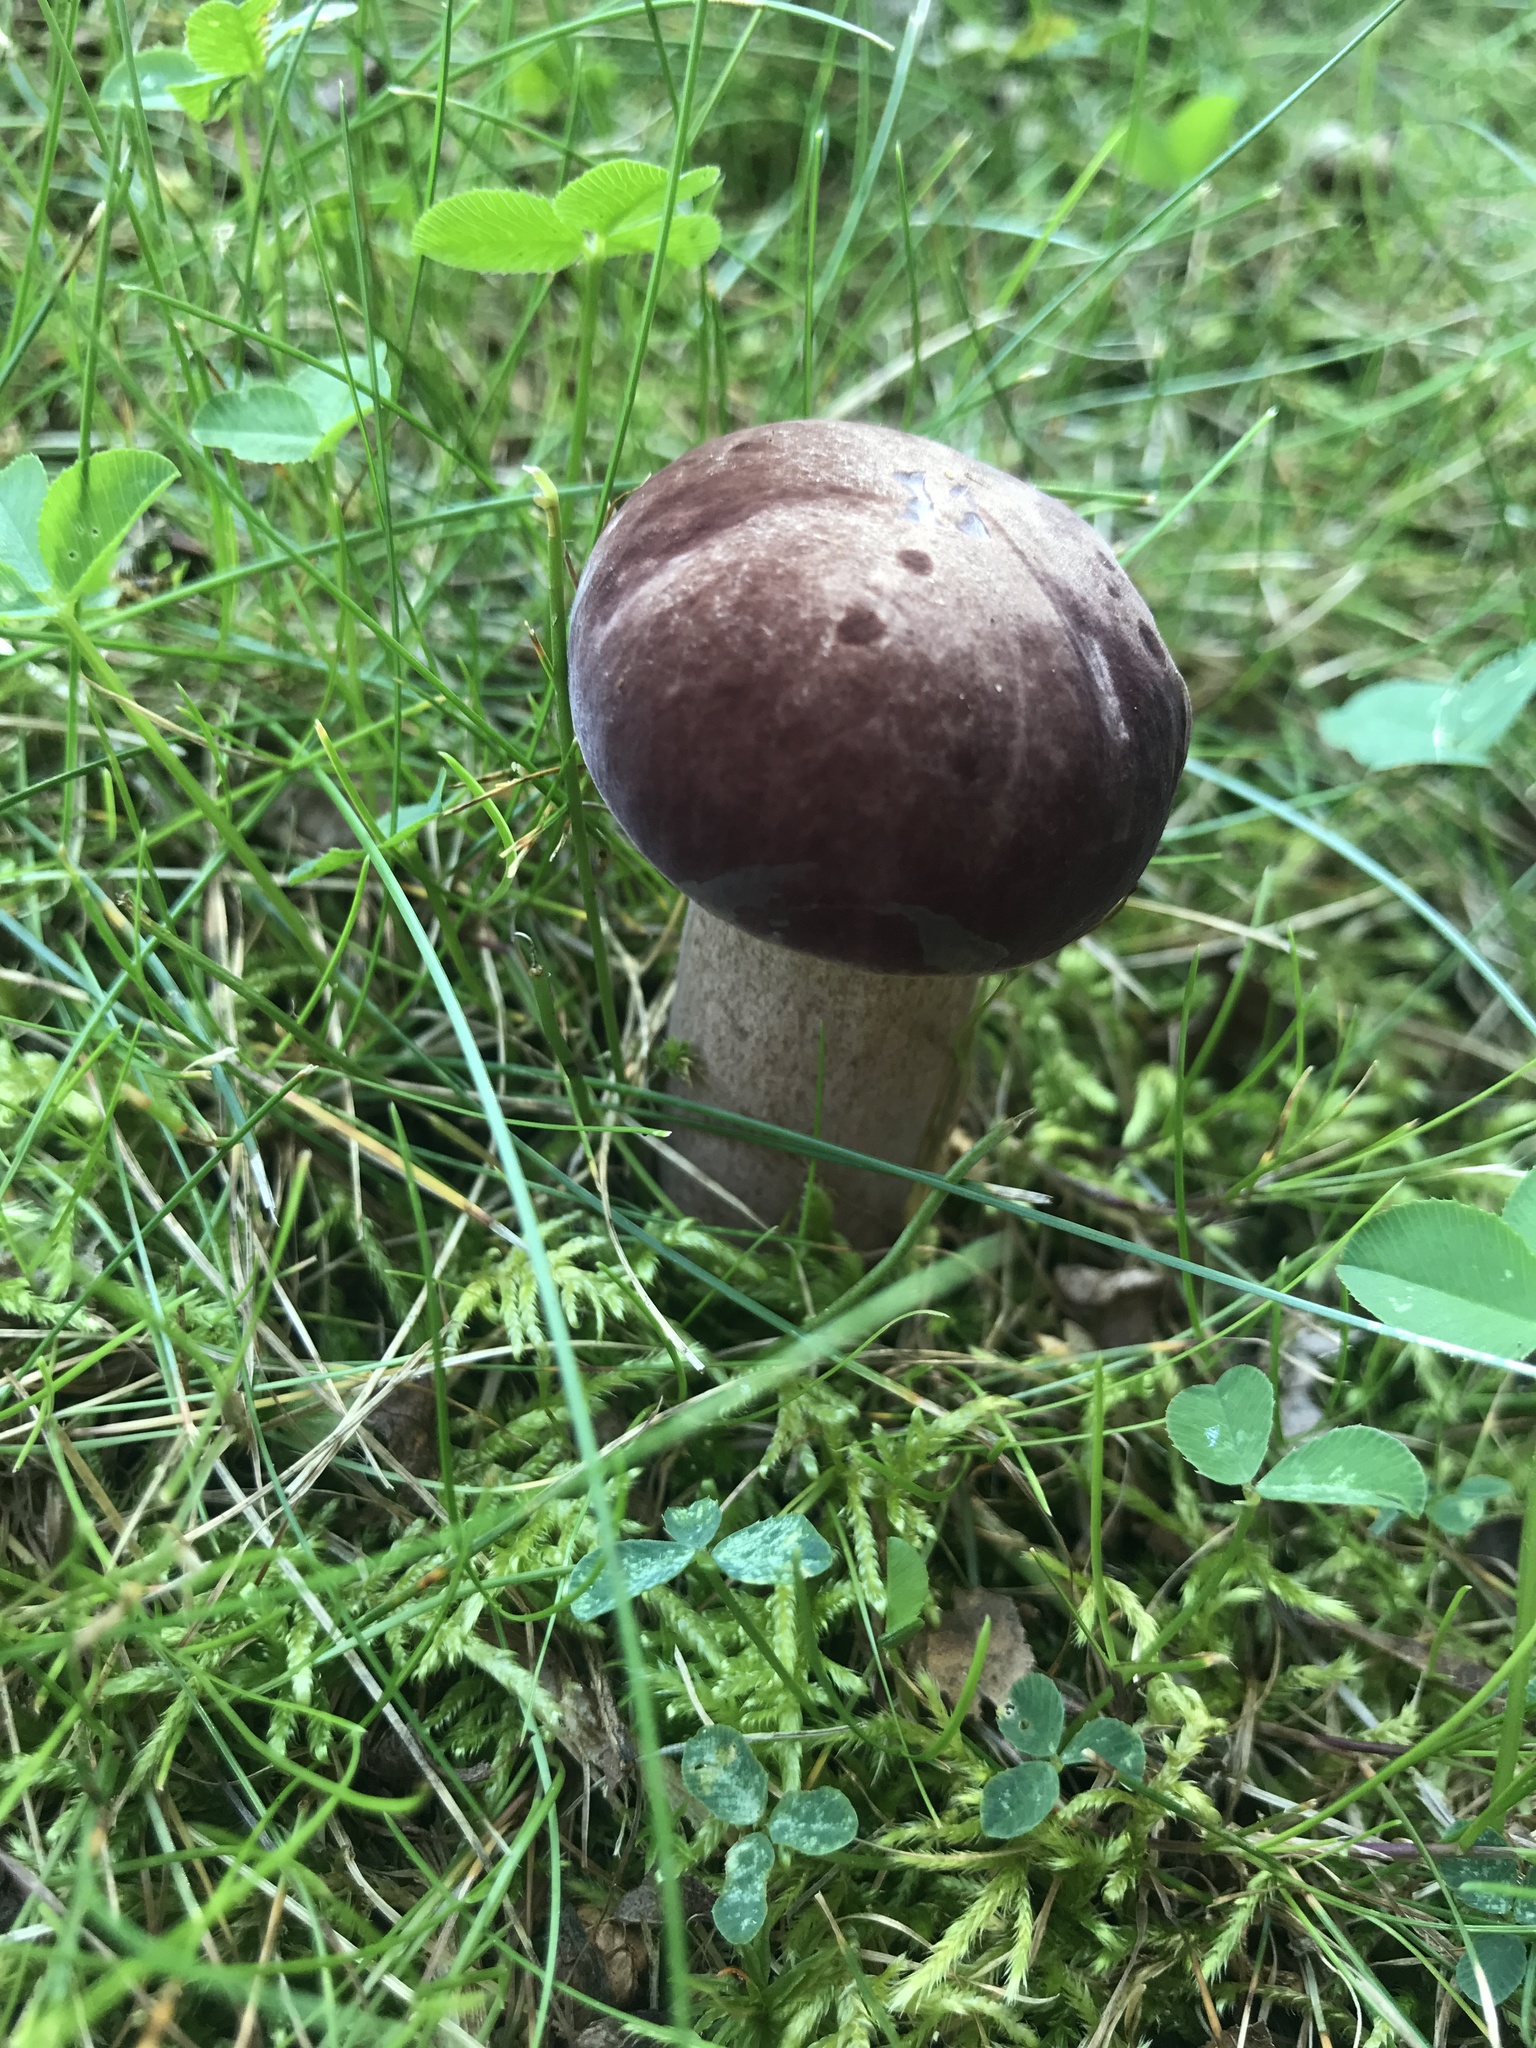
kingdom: Fungi
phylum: Basidiomycota
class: Agaricomycetes
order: Boletales
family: Boletaceae
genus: Tylopilus
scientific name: Tylopilus rubrobrunneus
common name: Reddish brown bitter bolete
